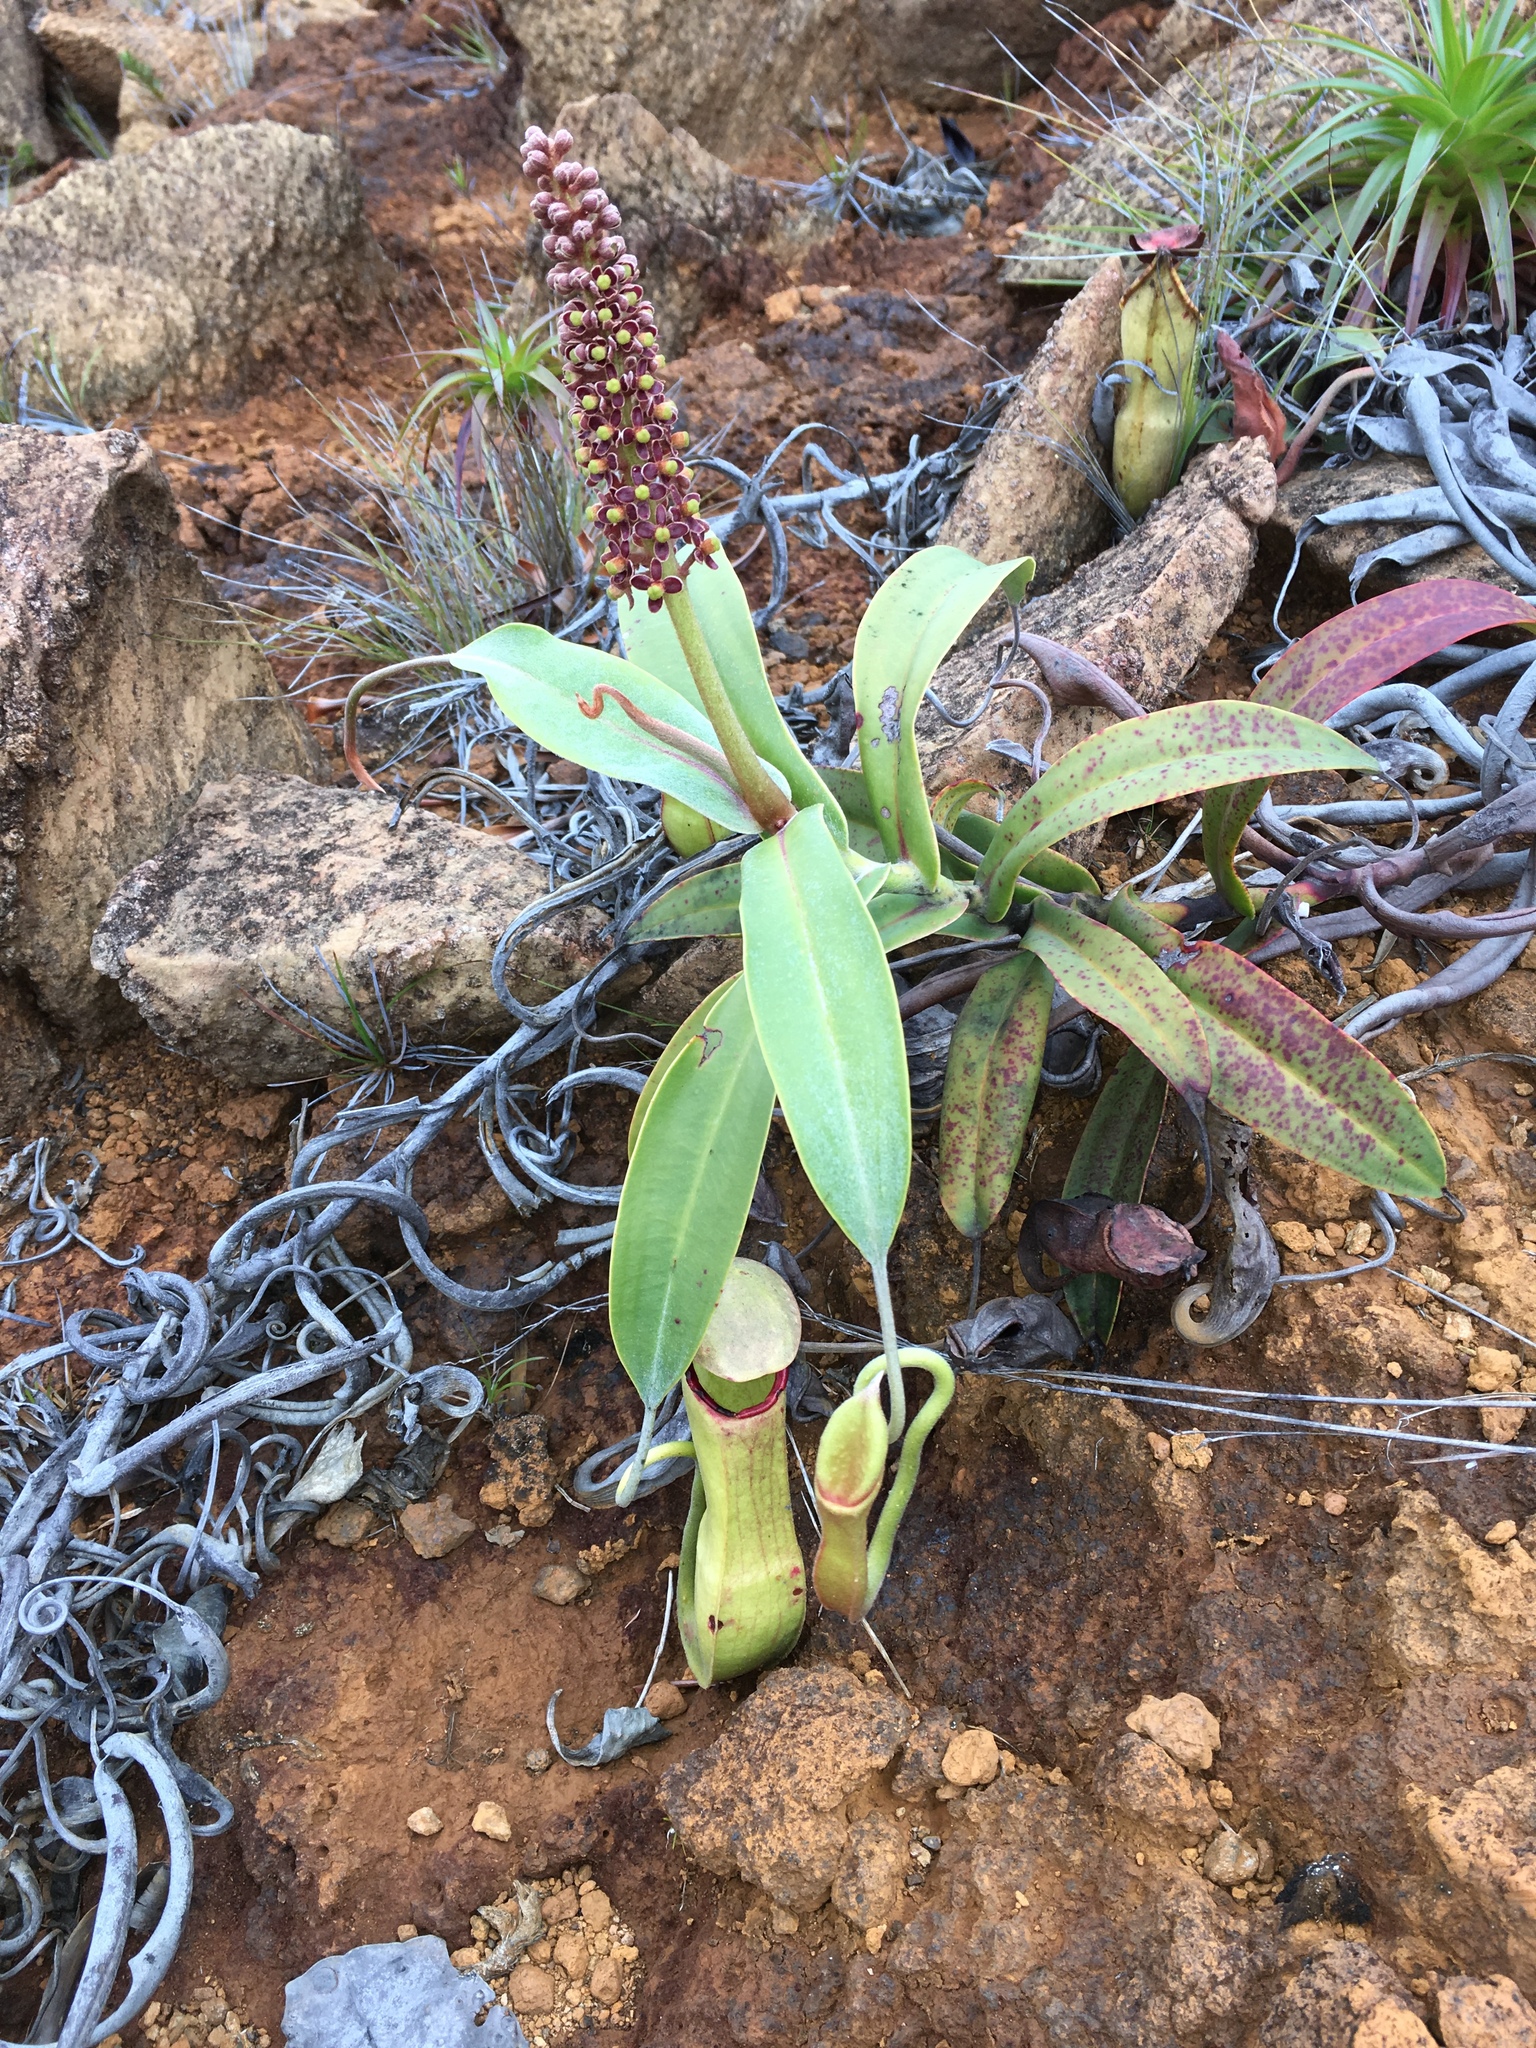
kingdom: Plantae
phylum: Tracheophyta
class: Magnoliopsida
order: Caryophyllales
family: Nepenthaceae
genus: Nepenthes
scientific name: Nepenthes vieillardii
